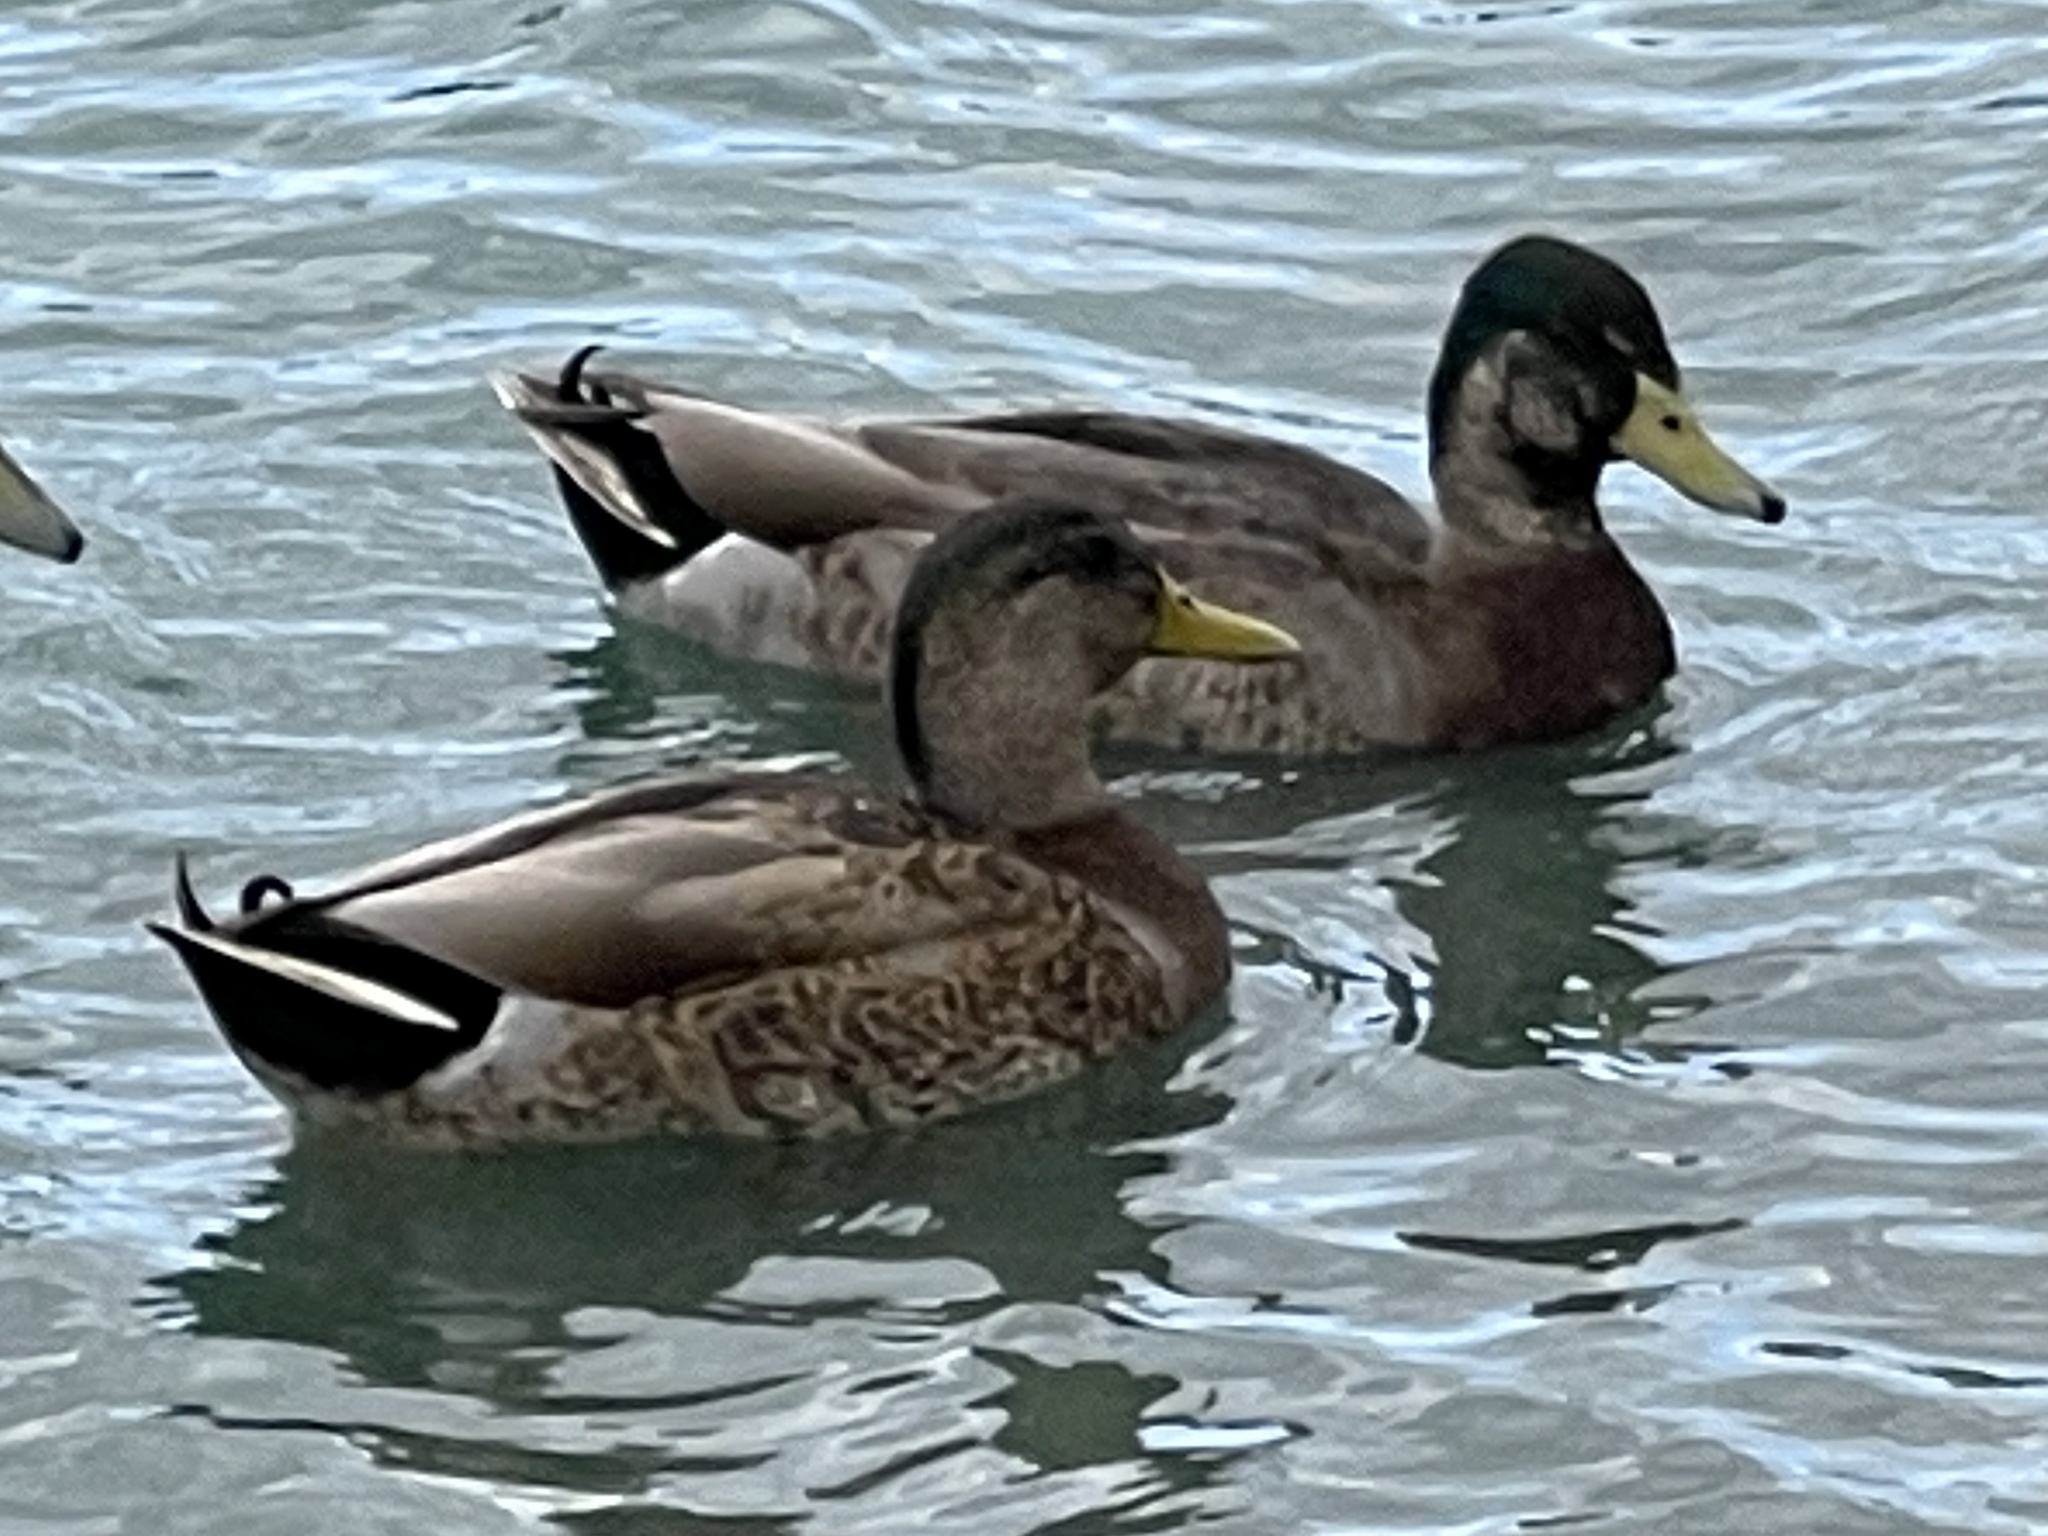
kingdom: Animalia
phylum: Chordata
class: Aves
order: Anseriformes
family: Anatidae
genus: Anas
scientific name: Anas
